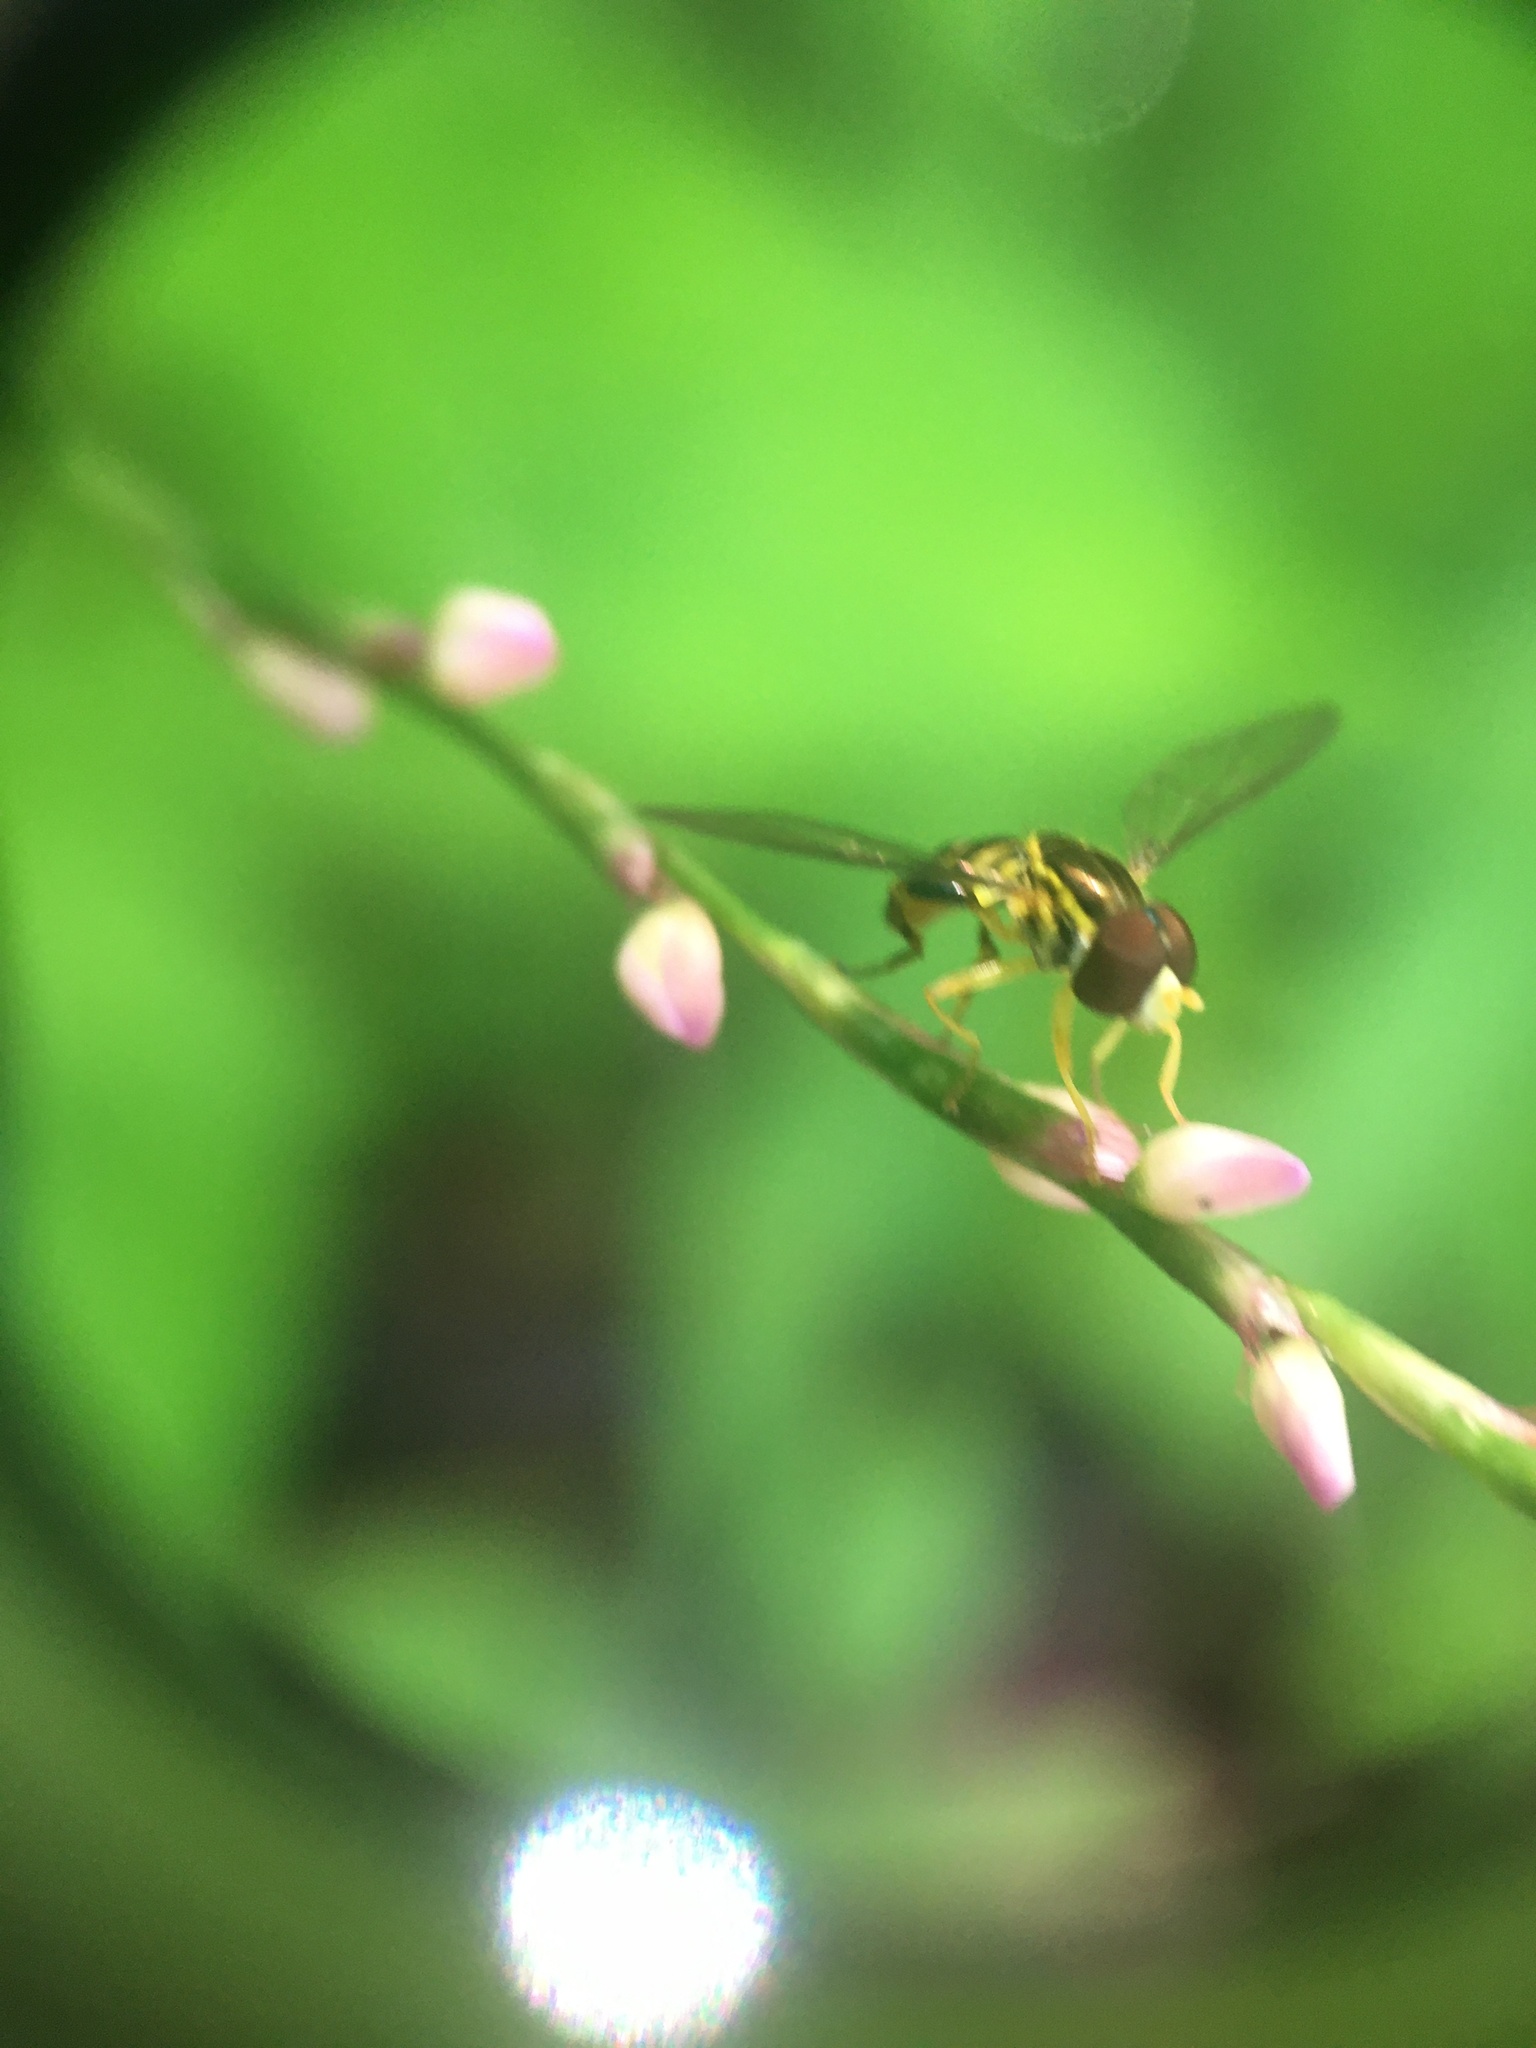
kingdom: Animalia
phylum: Arthropoda
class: Insecta
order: Diptera
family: Syrphidae
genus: Toxomerus
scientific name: Toxomerus geminatus
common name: Eastern calligrapher
